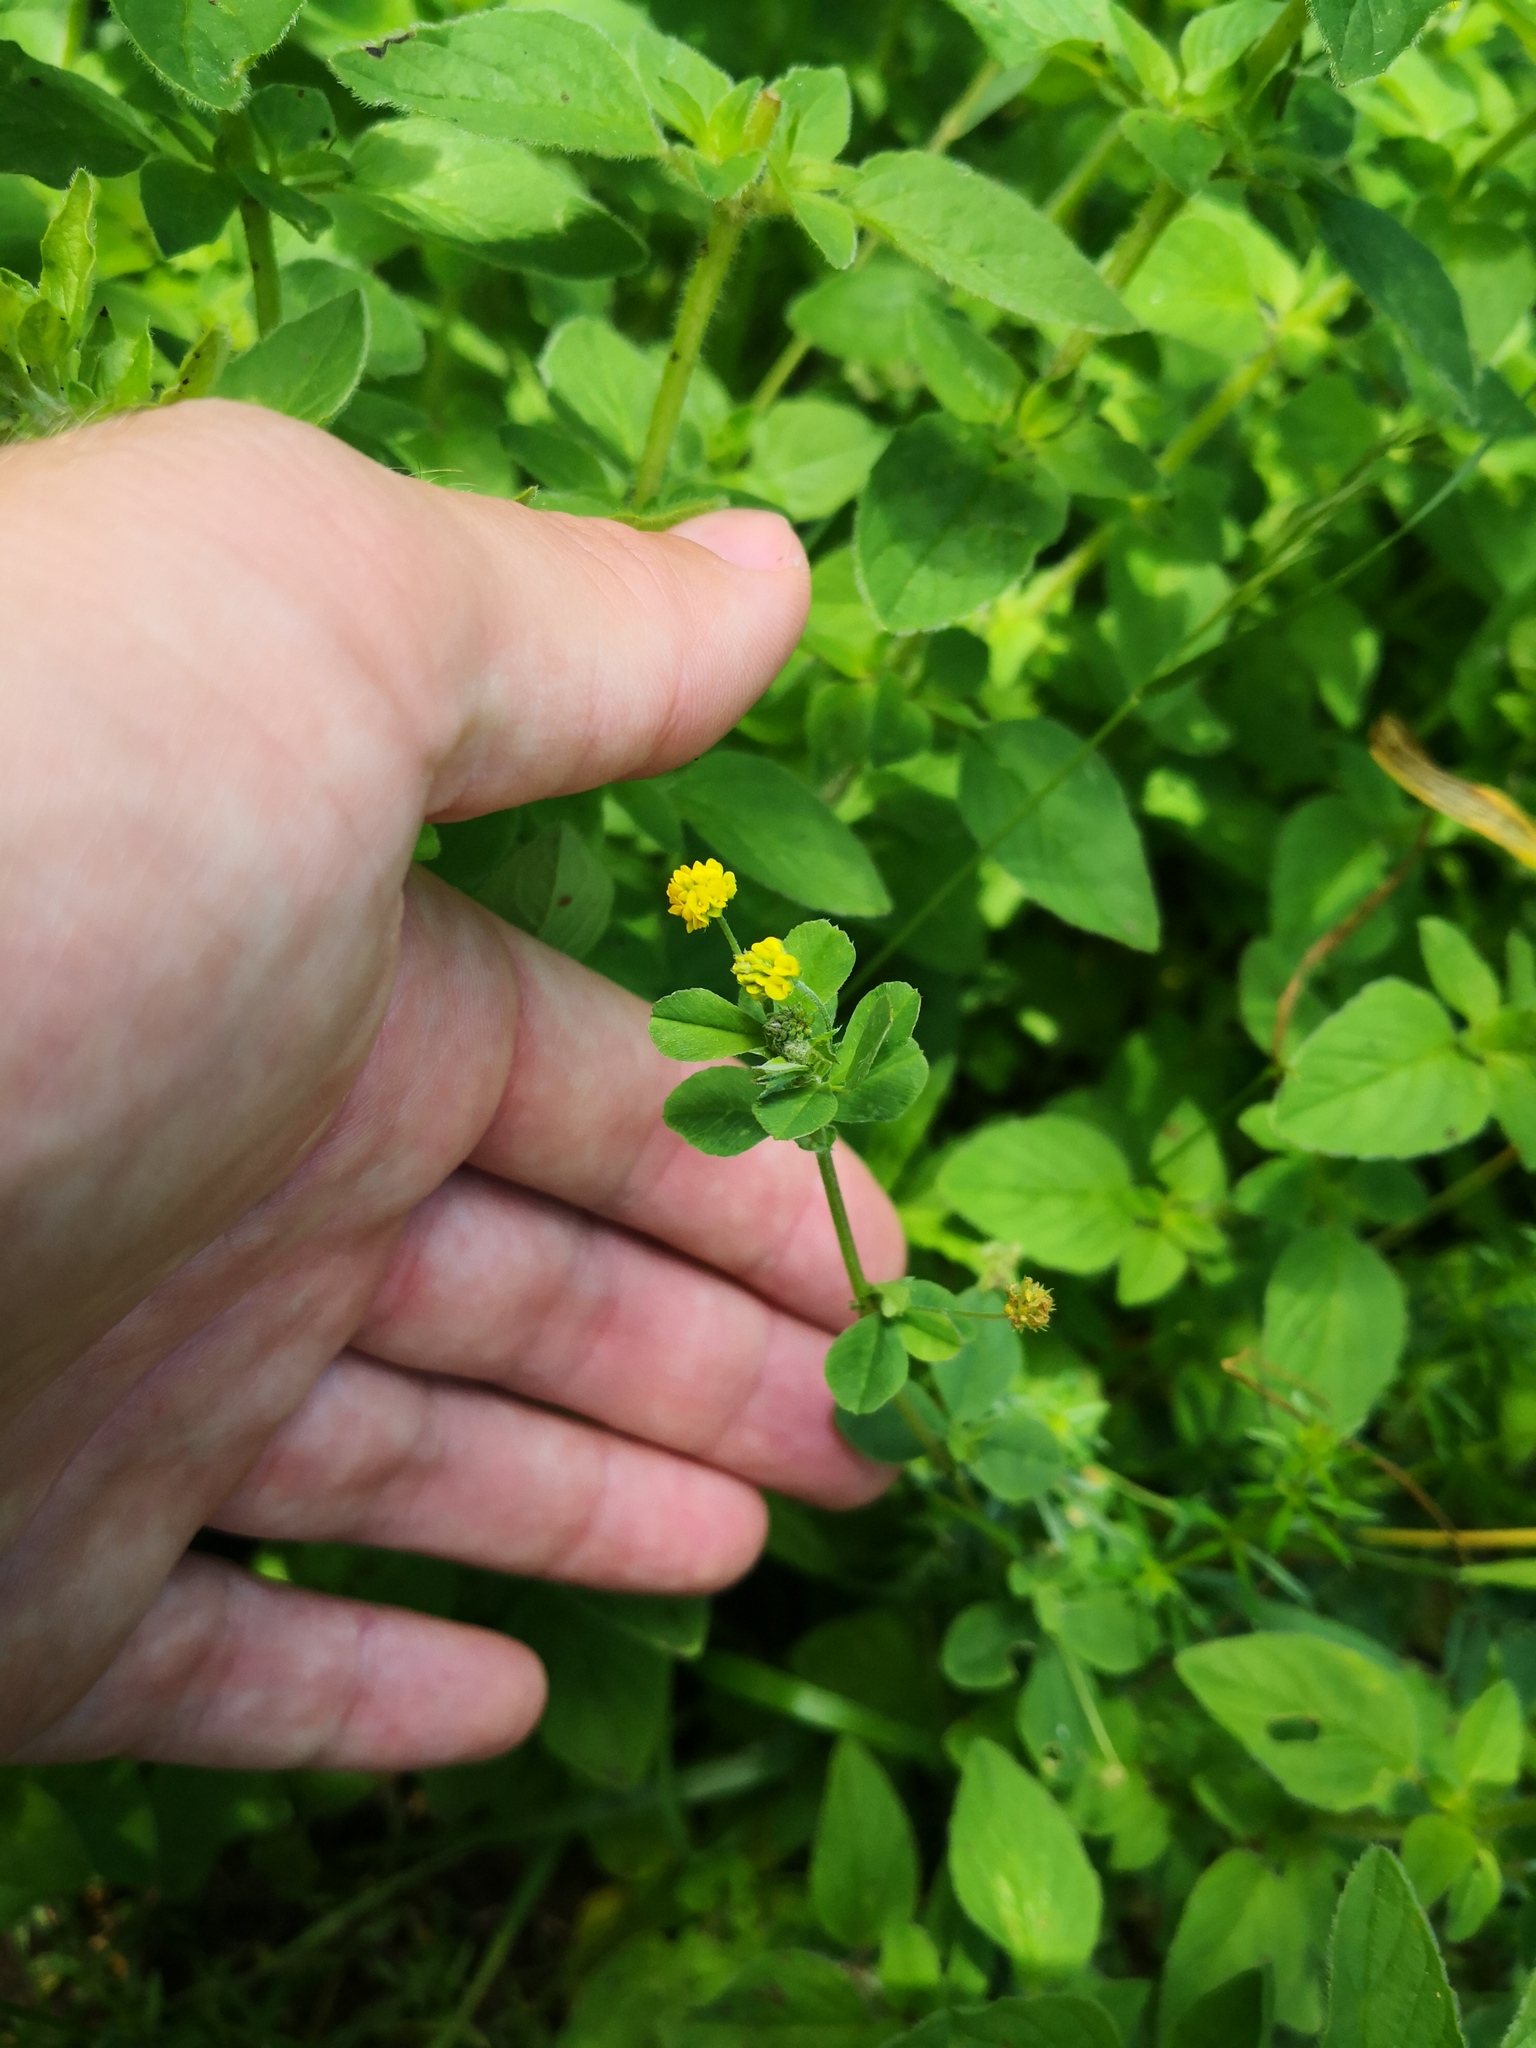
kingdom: Plantae
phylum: Tracheophyta
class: Magnoliopsida
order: Fabales
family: Fabaceae
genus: Medicago
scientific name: Medicago lupulina
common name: Black medick
